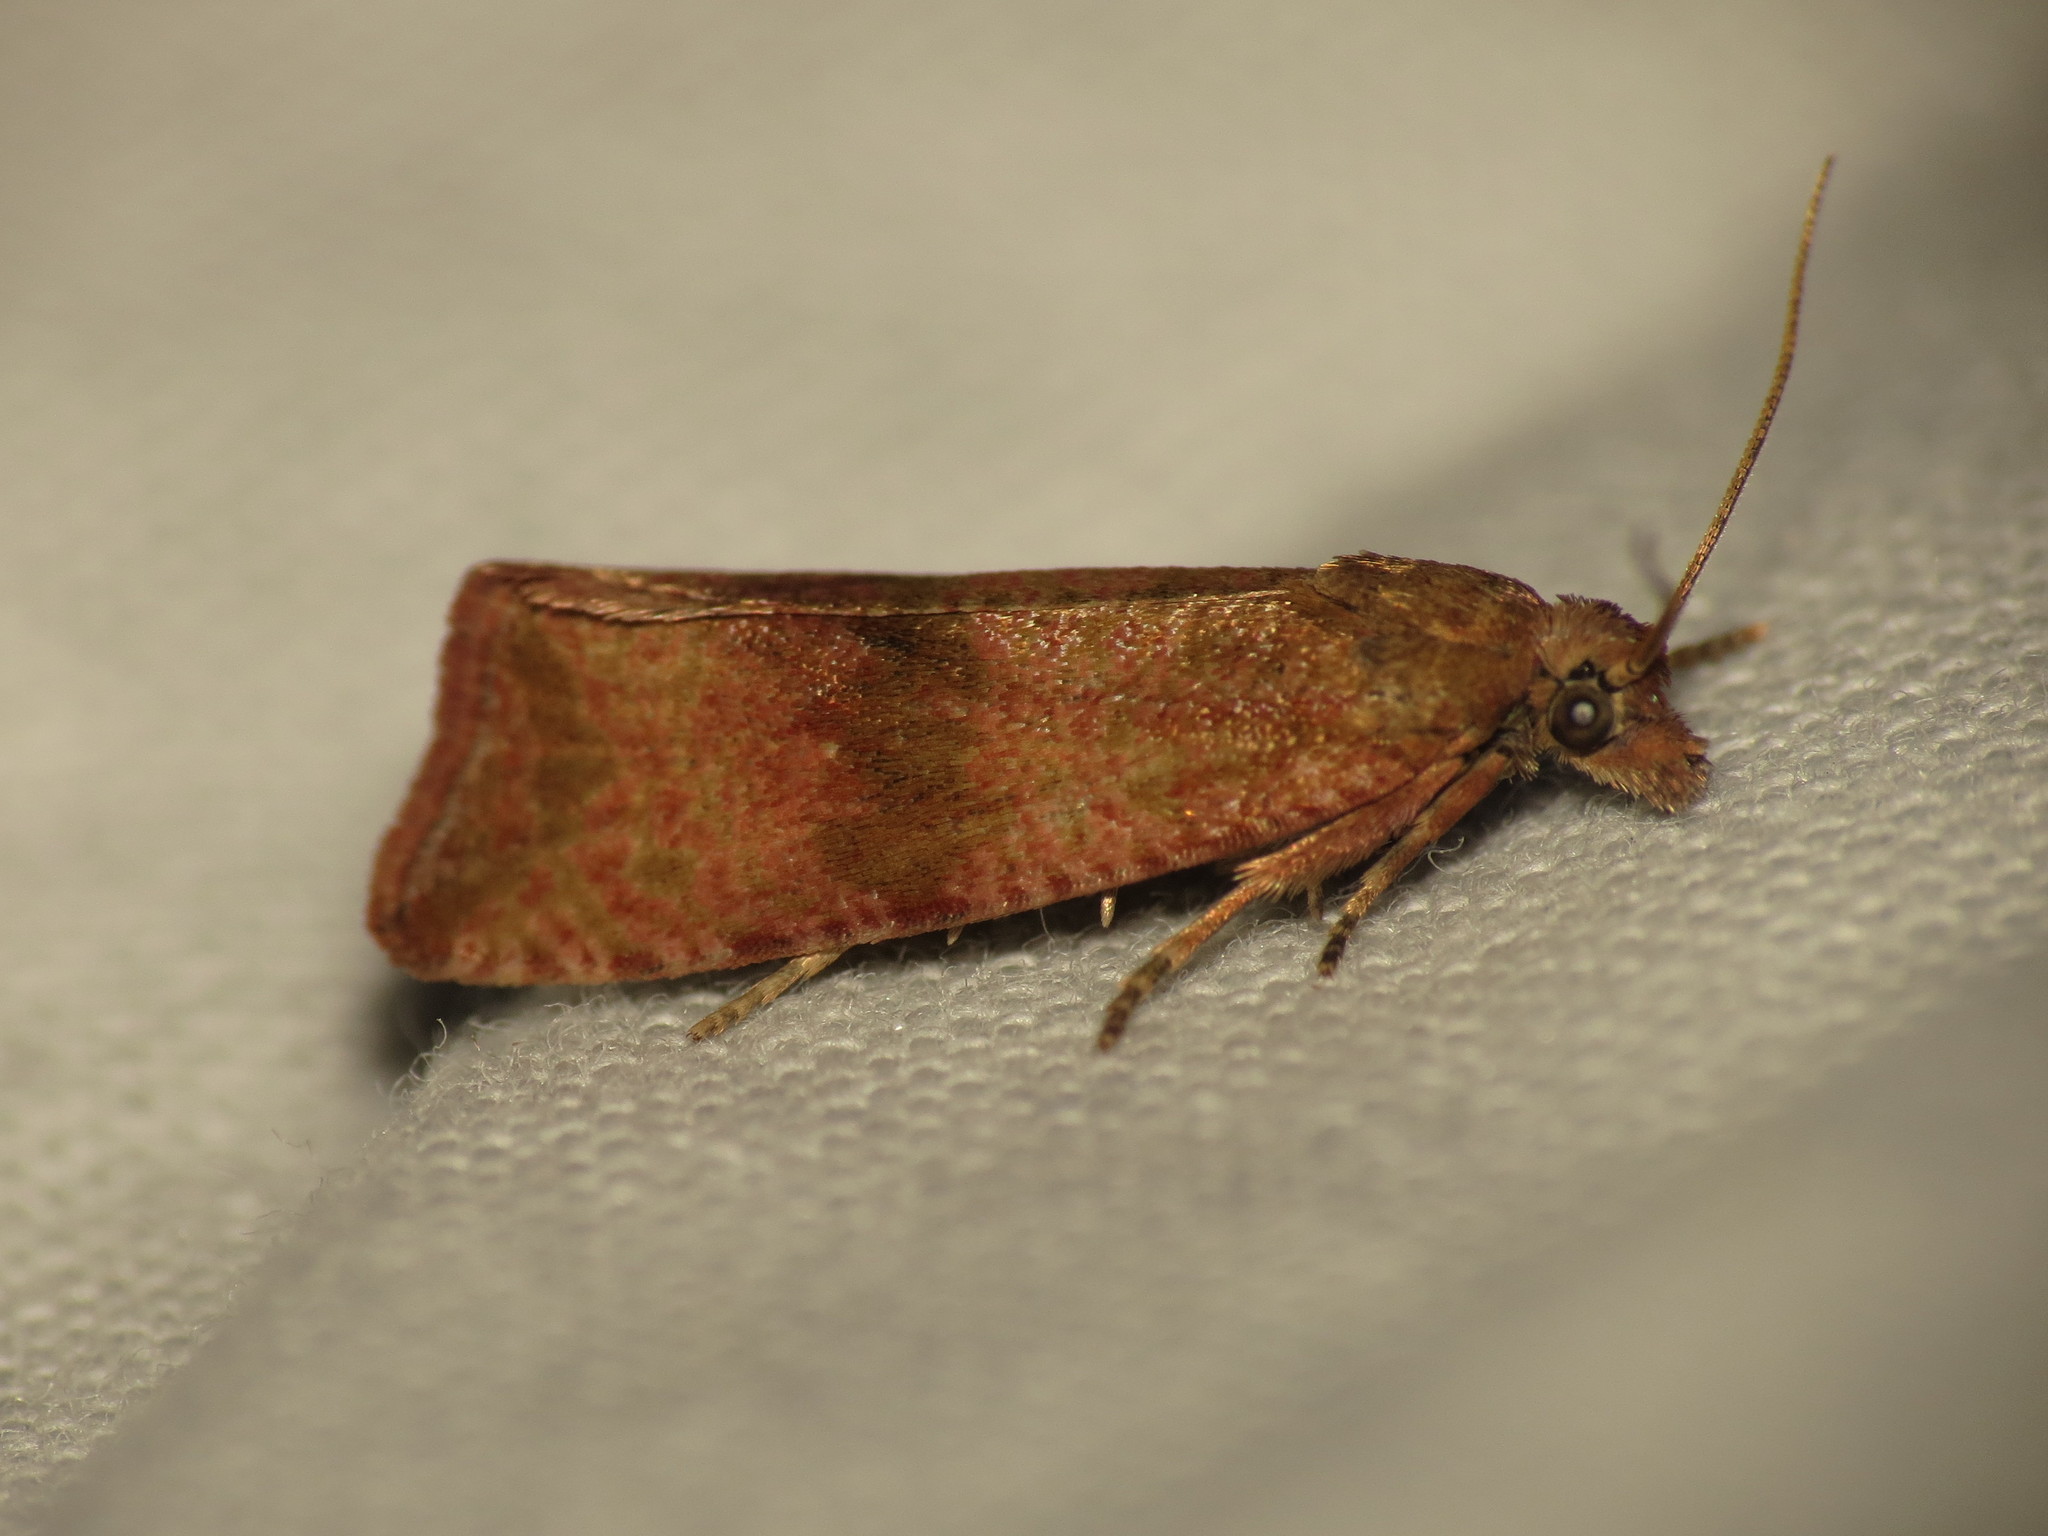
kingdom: Animalia
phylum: Arthropoda
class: Insecta
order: Lepidoptera
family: Tortricidae
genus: Celypha
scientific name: Celypha striana
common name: Barred marble
